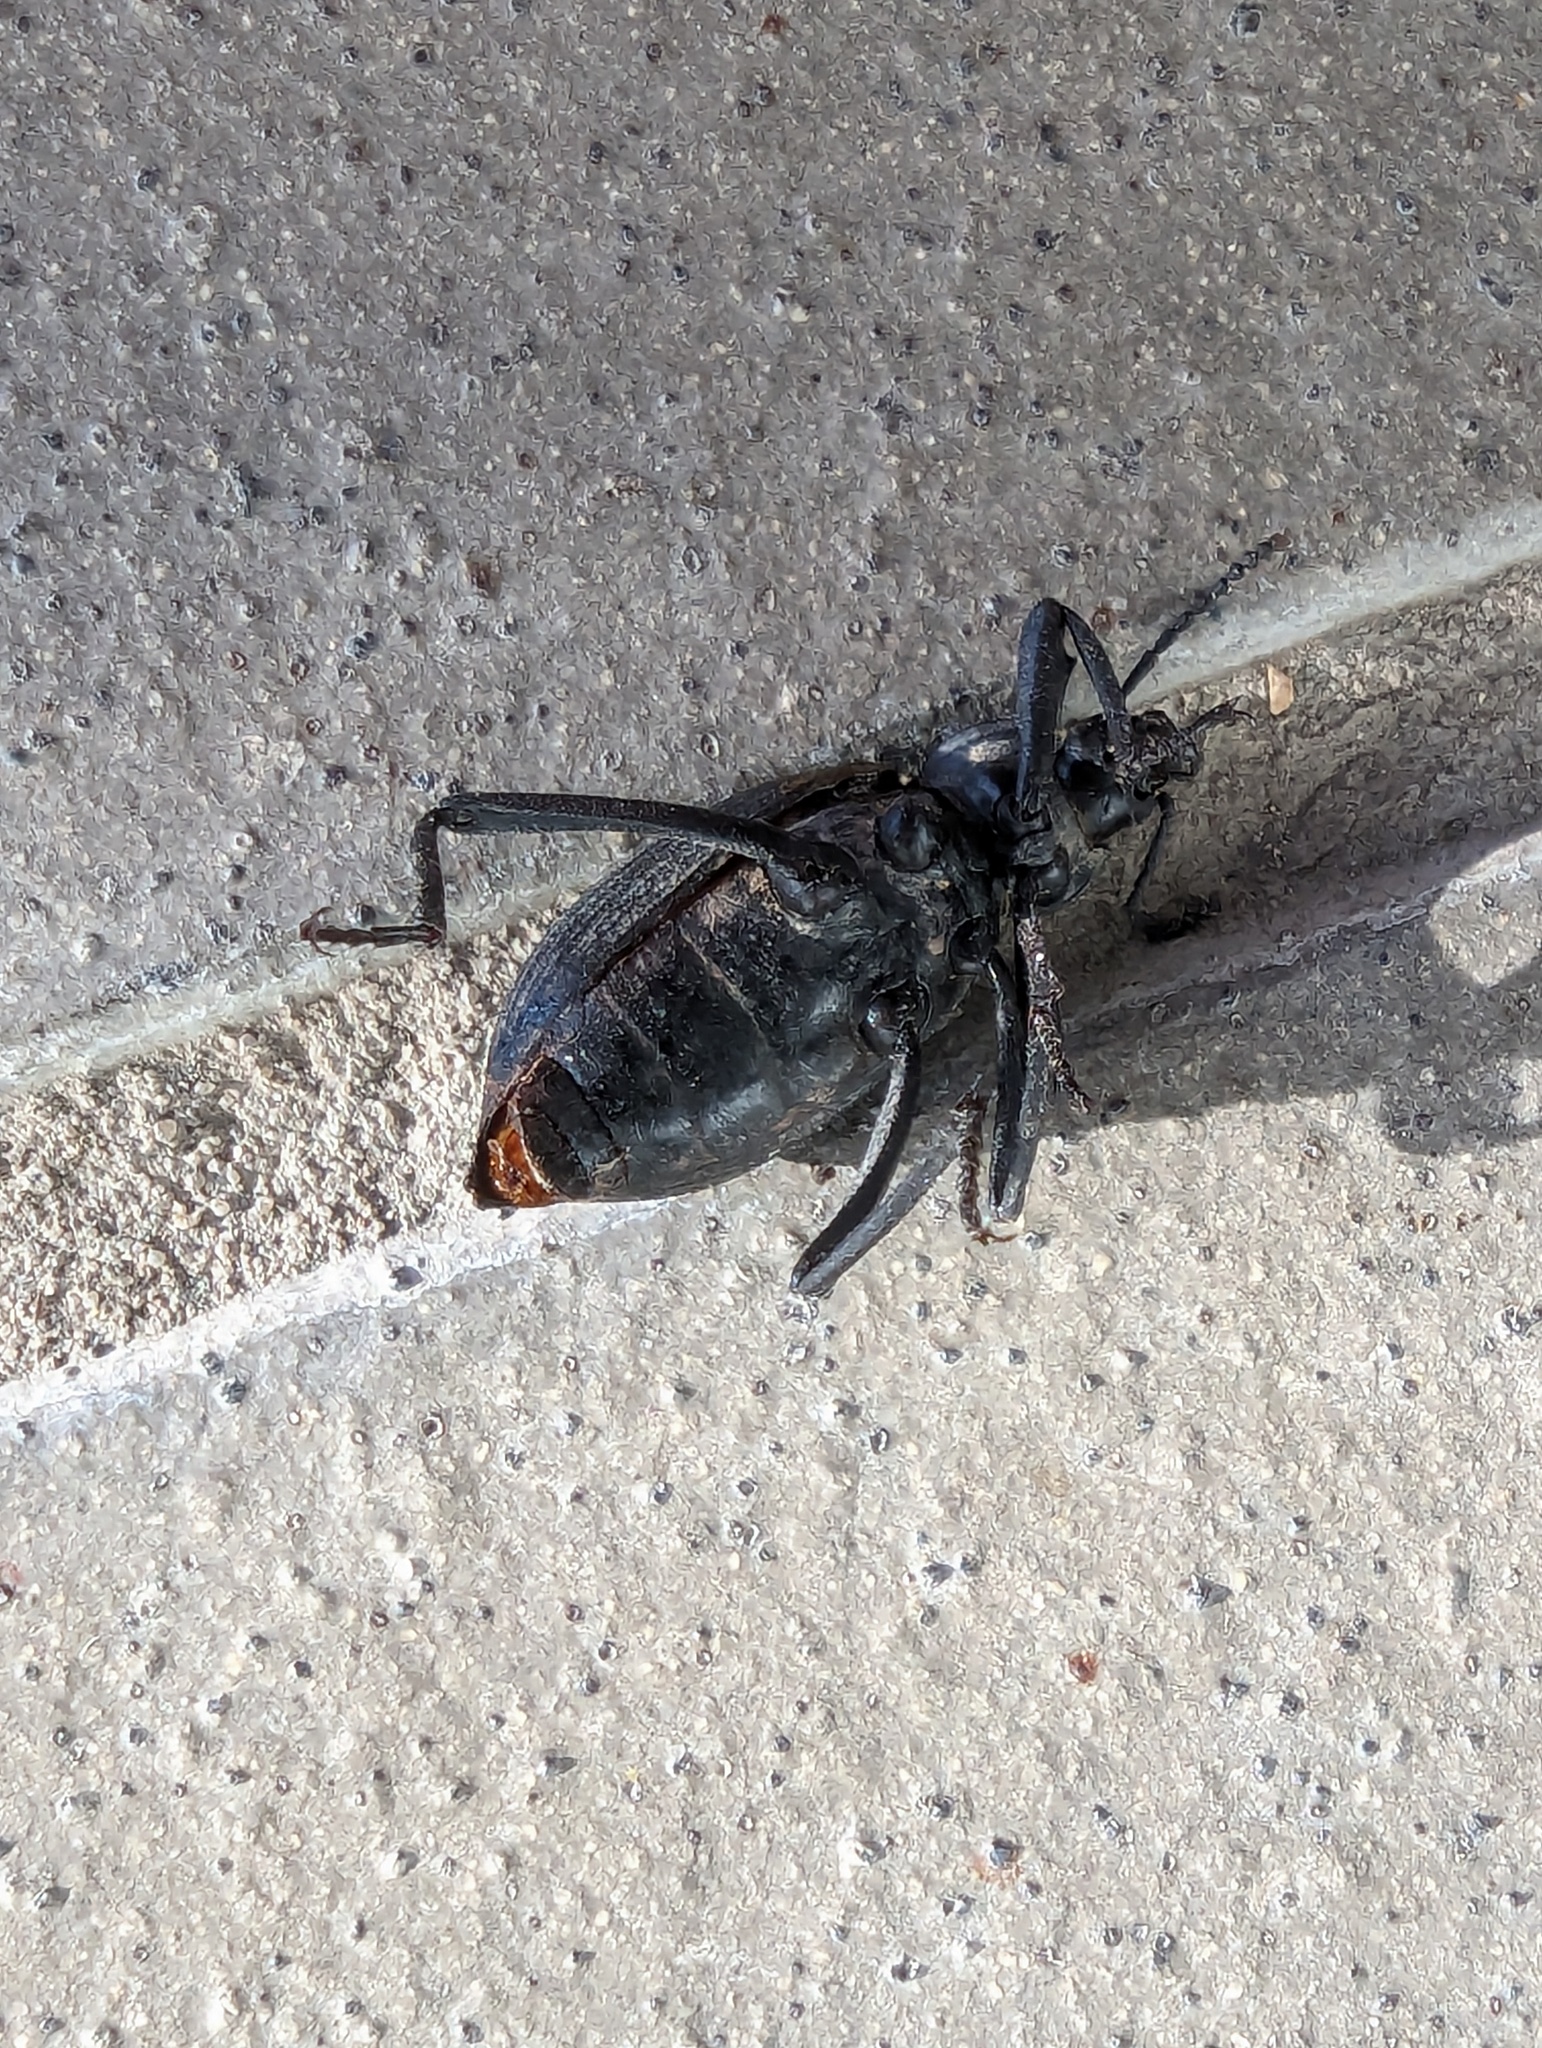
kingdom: Animalia
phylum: Arthropoda
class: Insecta
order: Coleoptera
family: Tenebrionidae
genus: Eleodes
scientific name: Eleodes hispilabris
